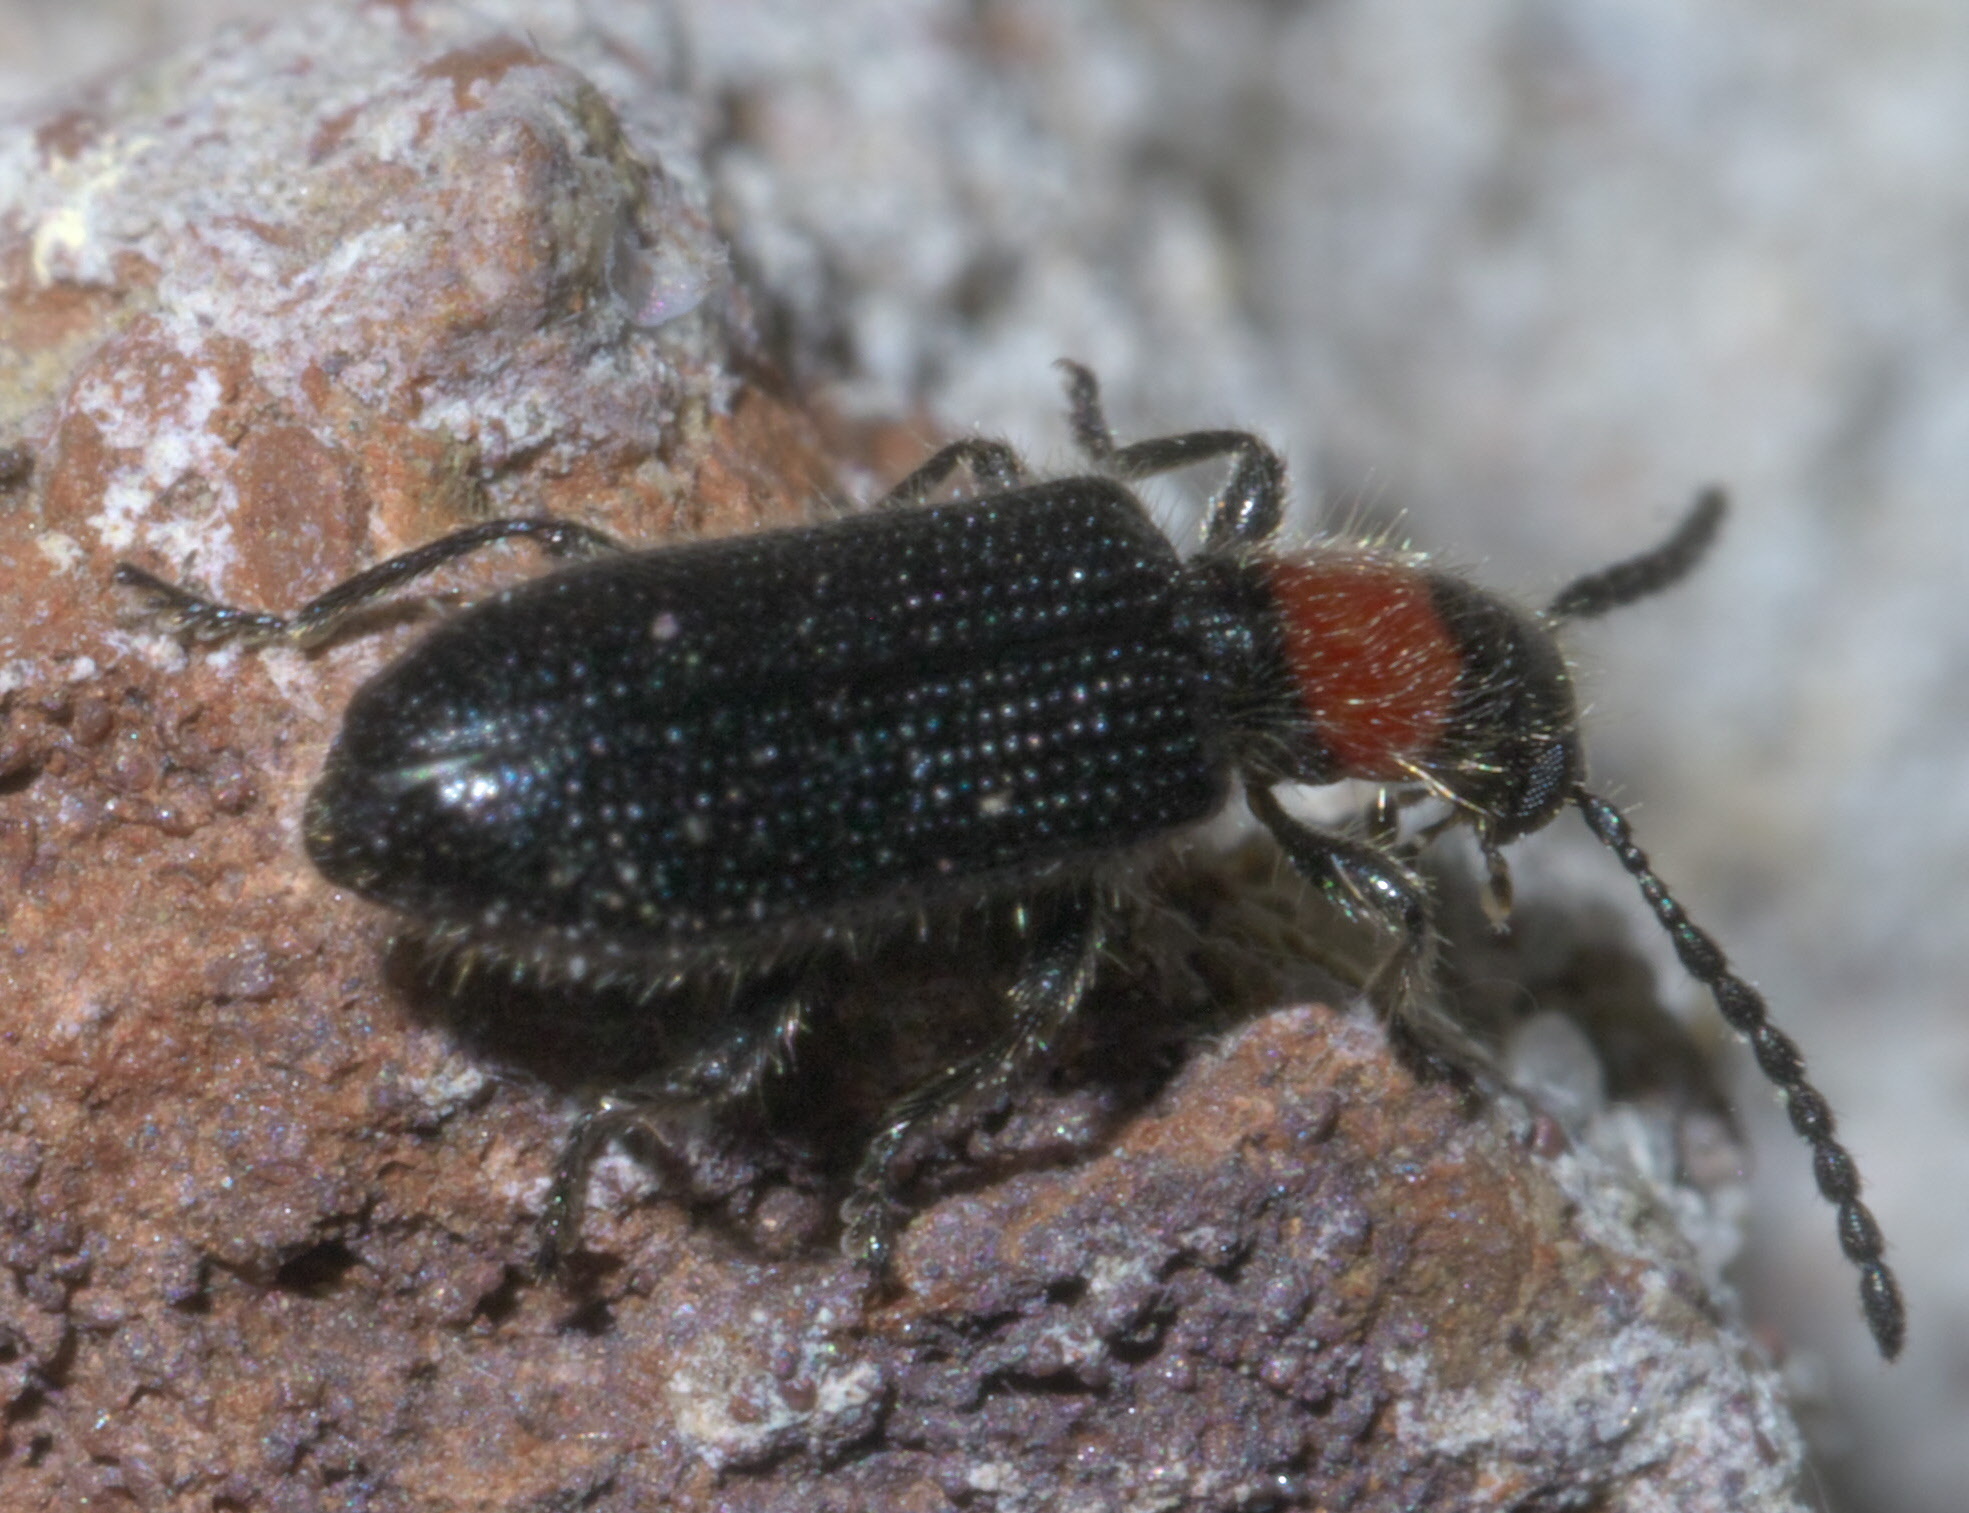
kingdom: Animalia
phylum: Arthropoda
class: Insecta
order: Coleoptera
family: Cleridae
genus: Cymatoderella
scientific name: Cymatoderella collaris
